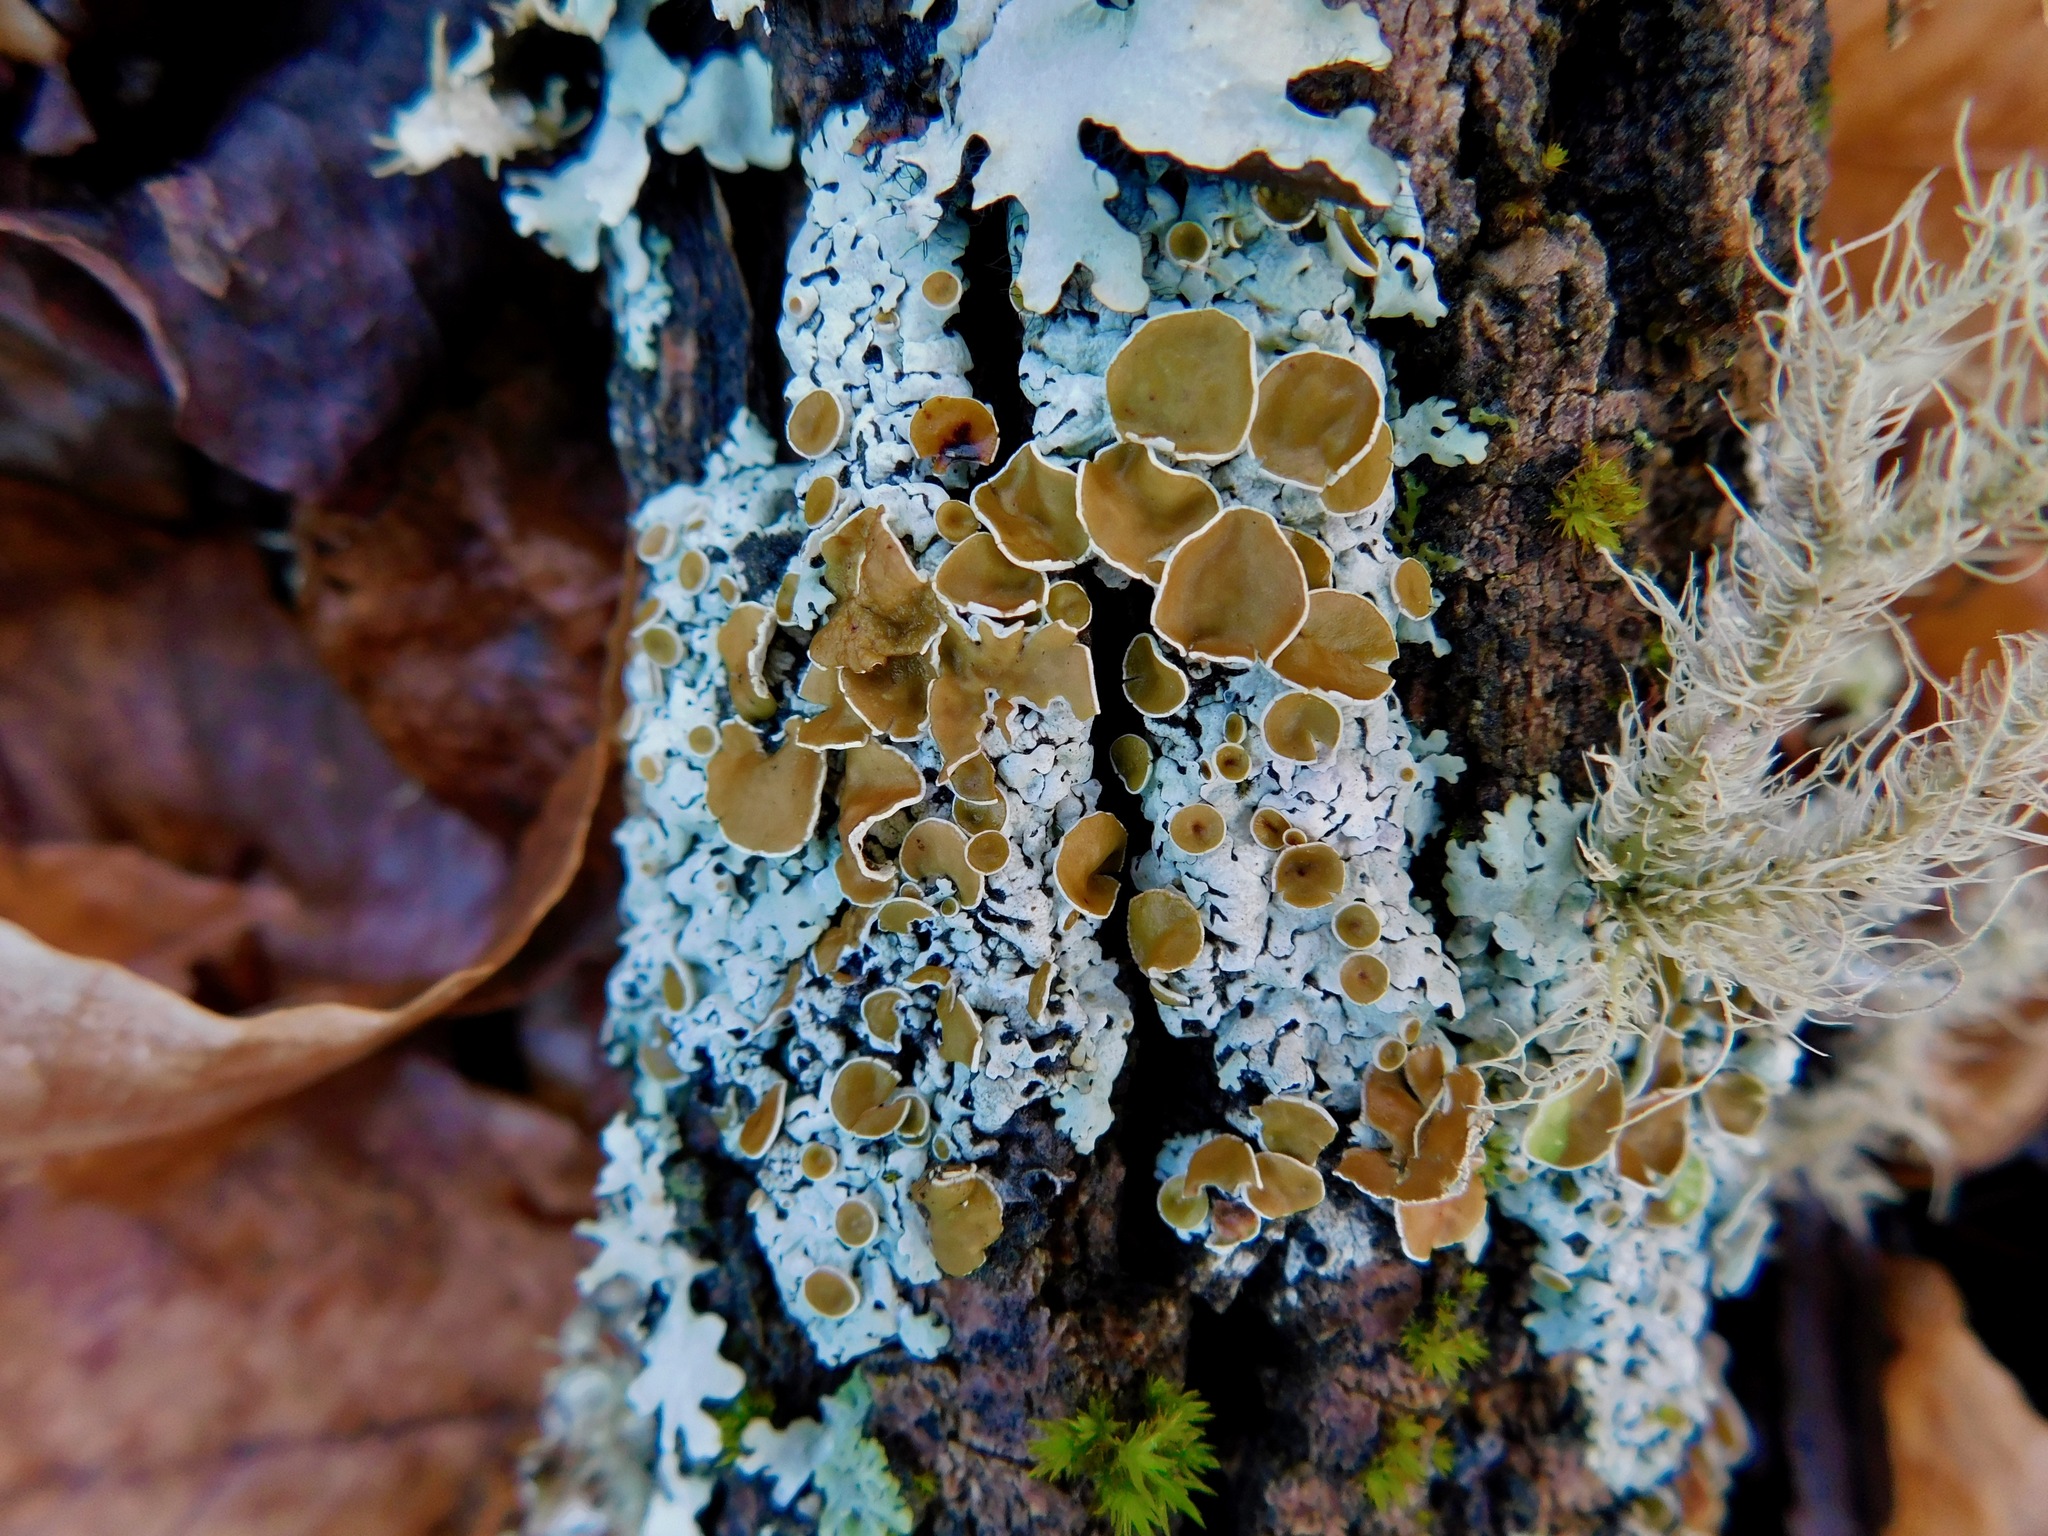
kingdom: Fungi
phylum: Ascomycota
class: Lecanoromycetes
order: Lecanorales
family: Parmeliaceae
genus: Myelochroa
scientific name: Myelochroa galbina
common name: Smooth axil-bristle lichen
